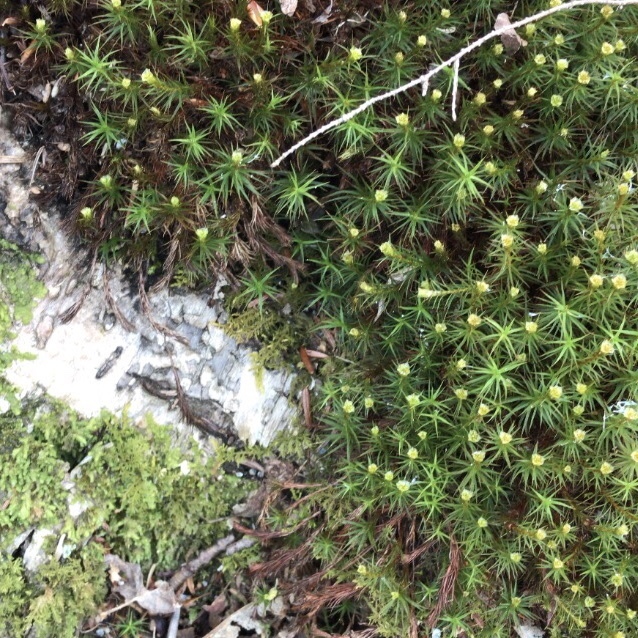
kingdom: Plantae
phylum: Bryophyta
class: Polytrichopsida
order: Polytrichales
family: Polytrichaceae
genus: Polytrichum
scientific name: Polytrichum commune
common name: Common haircap
